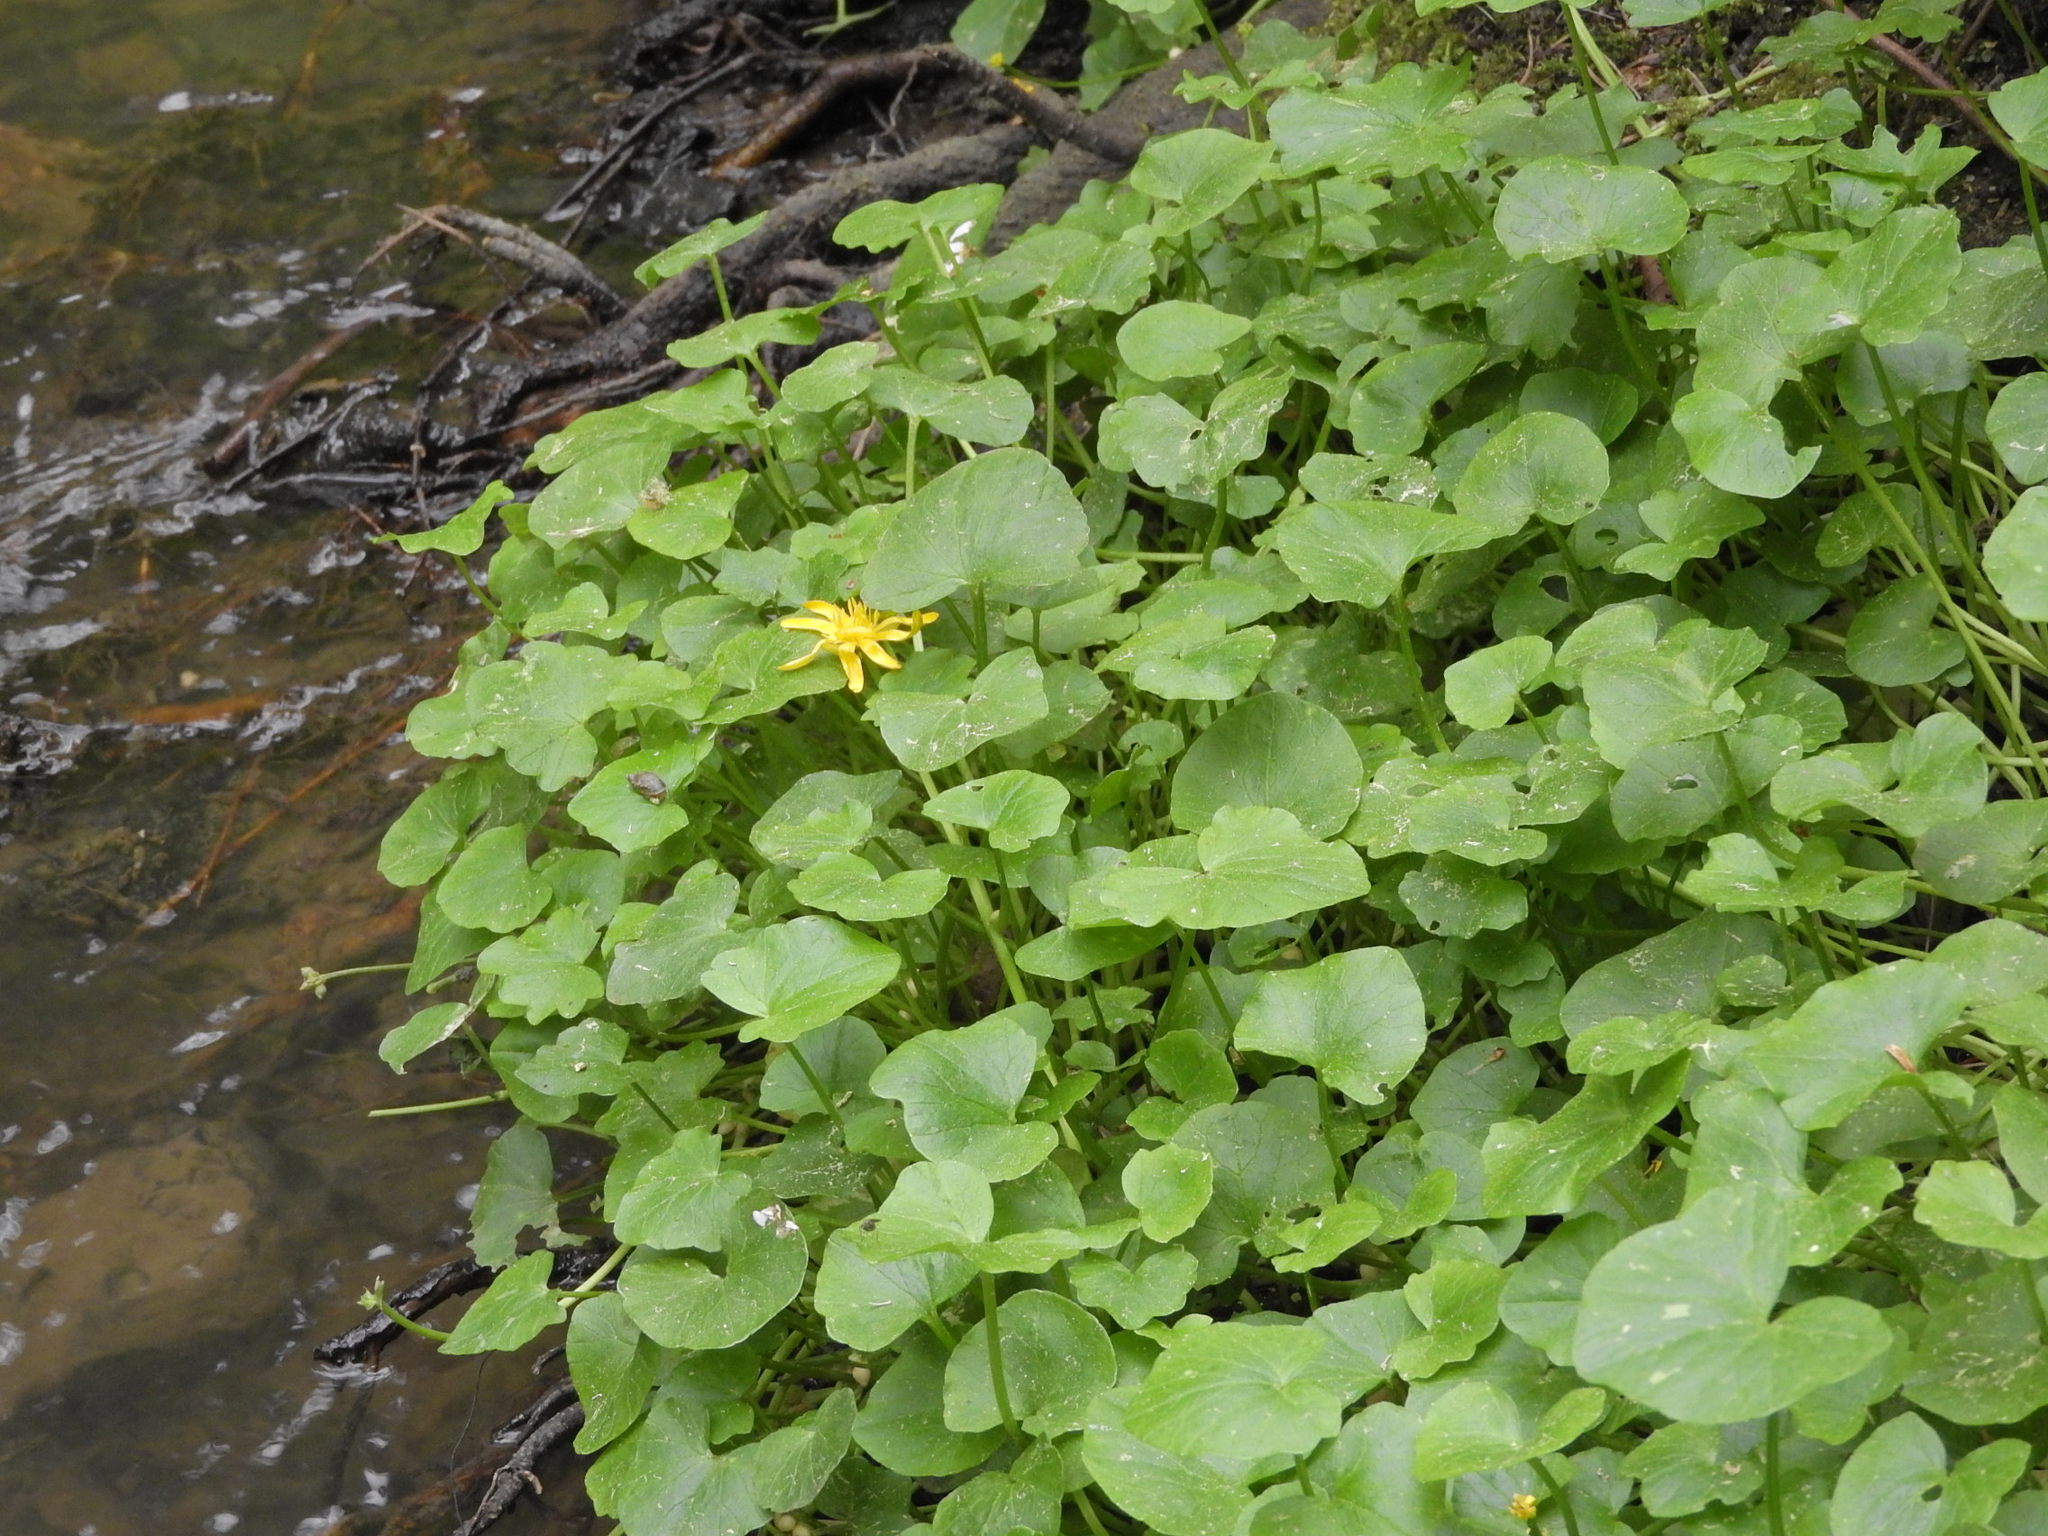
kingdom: Plantae
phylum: Tracheophyta
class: Magnoliopsida
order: Ranunculales
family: Ranunculaceae
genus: Ficaria
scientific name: Ficaria verna
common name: Lesser celandine
